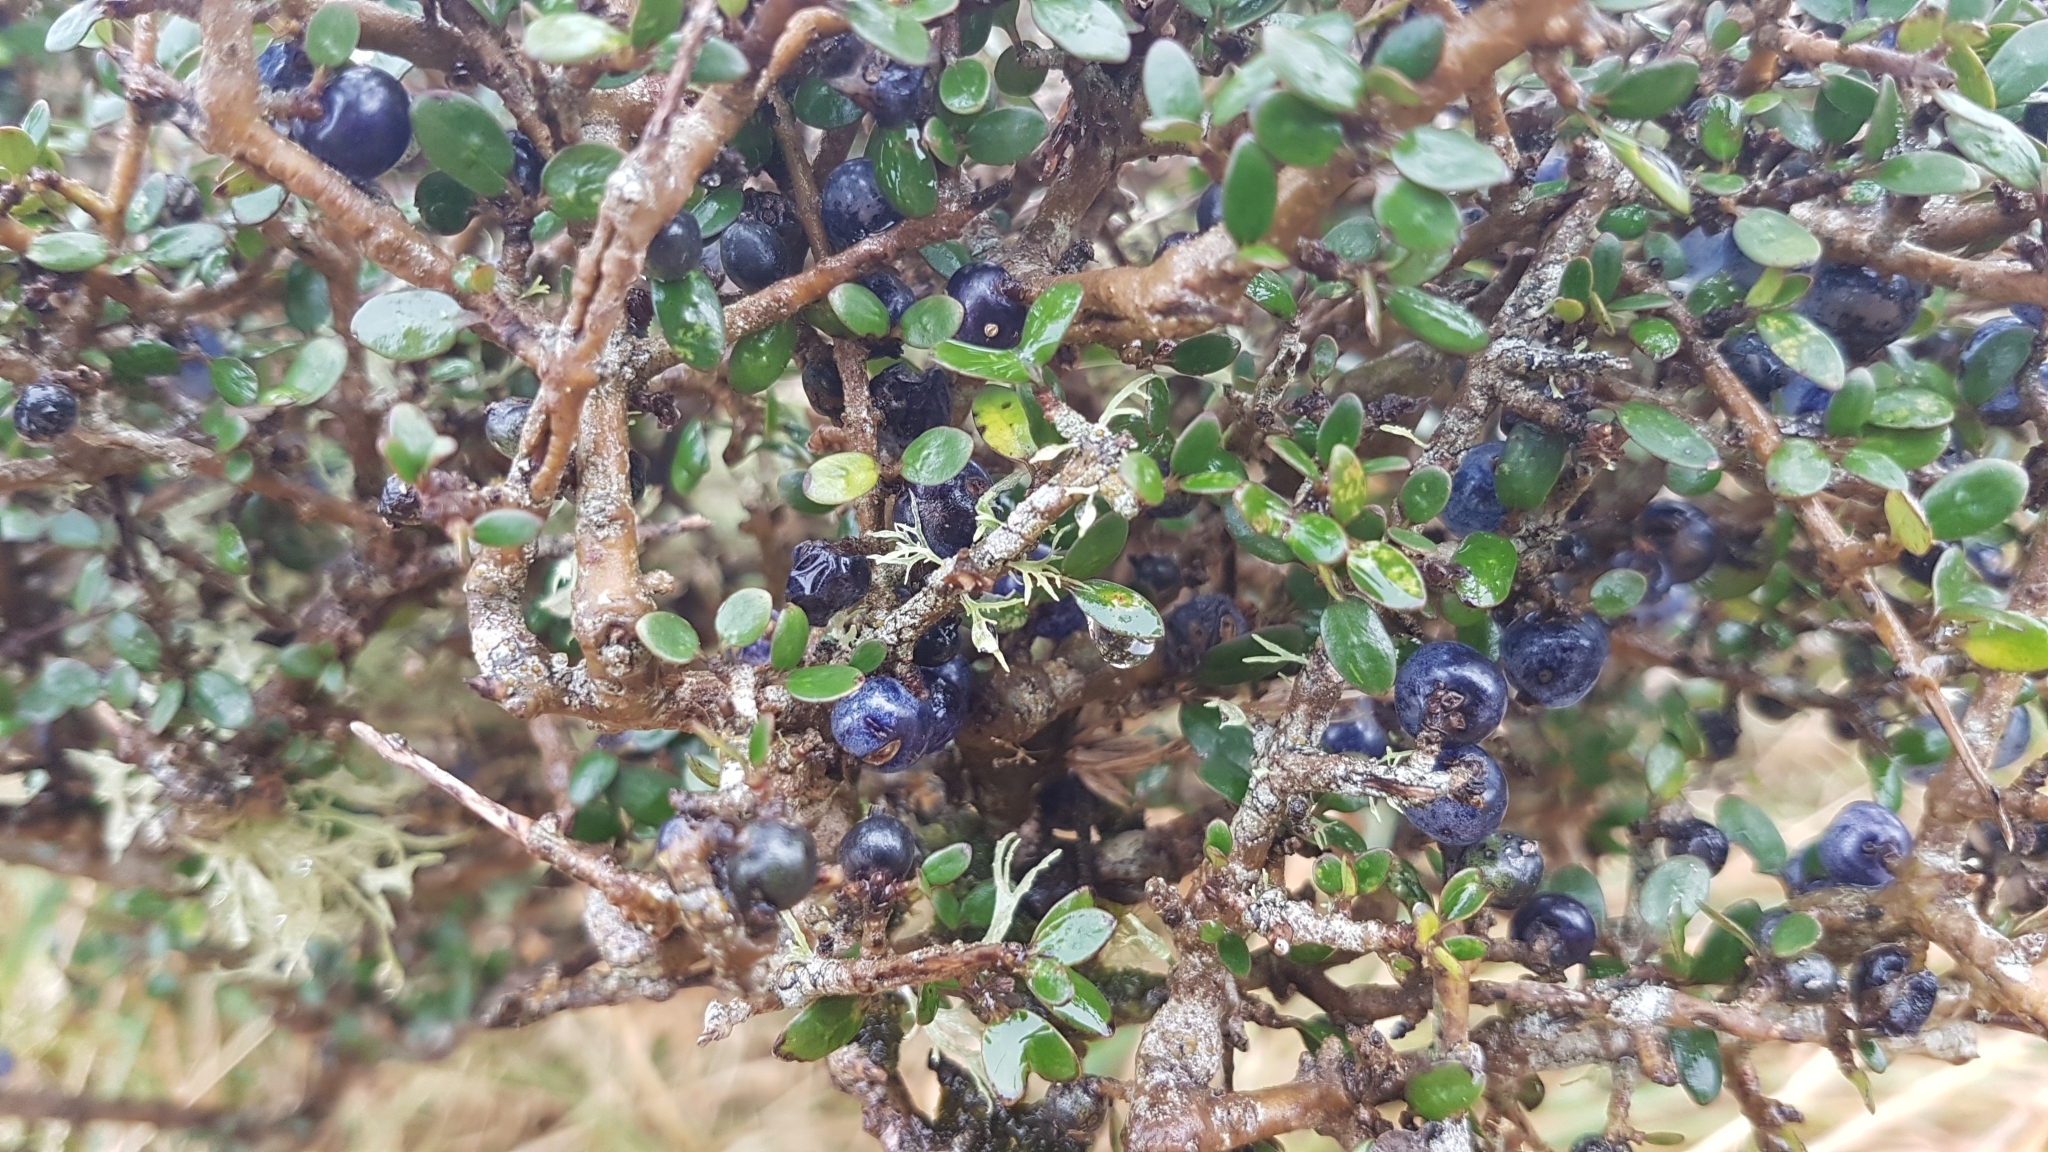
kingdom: Plantae
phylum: Tracheophyta
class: Magnoliopsida
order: Gentianales
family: Rubiaceae
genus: Coprosma
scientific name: Coprosma propinqua
